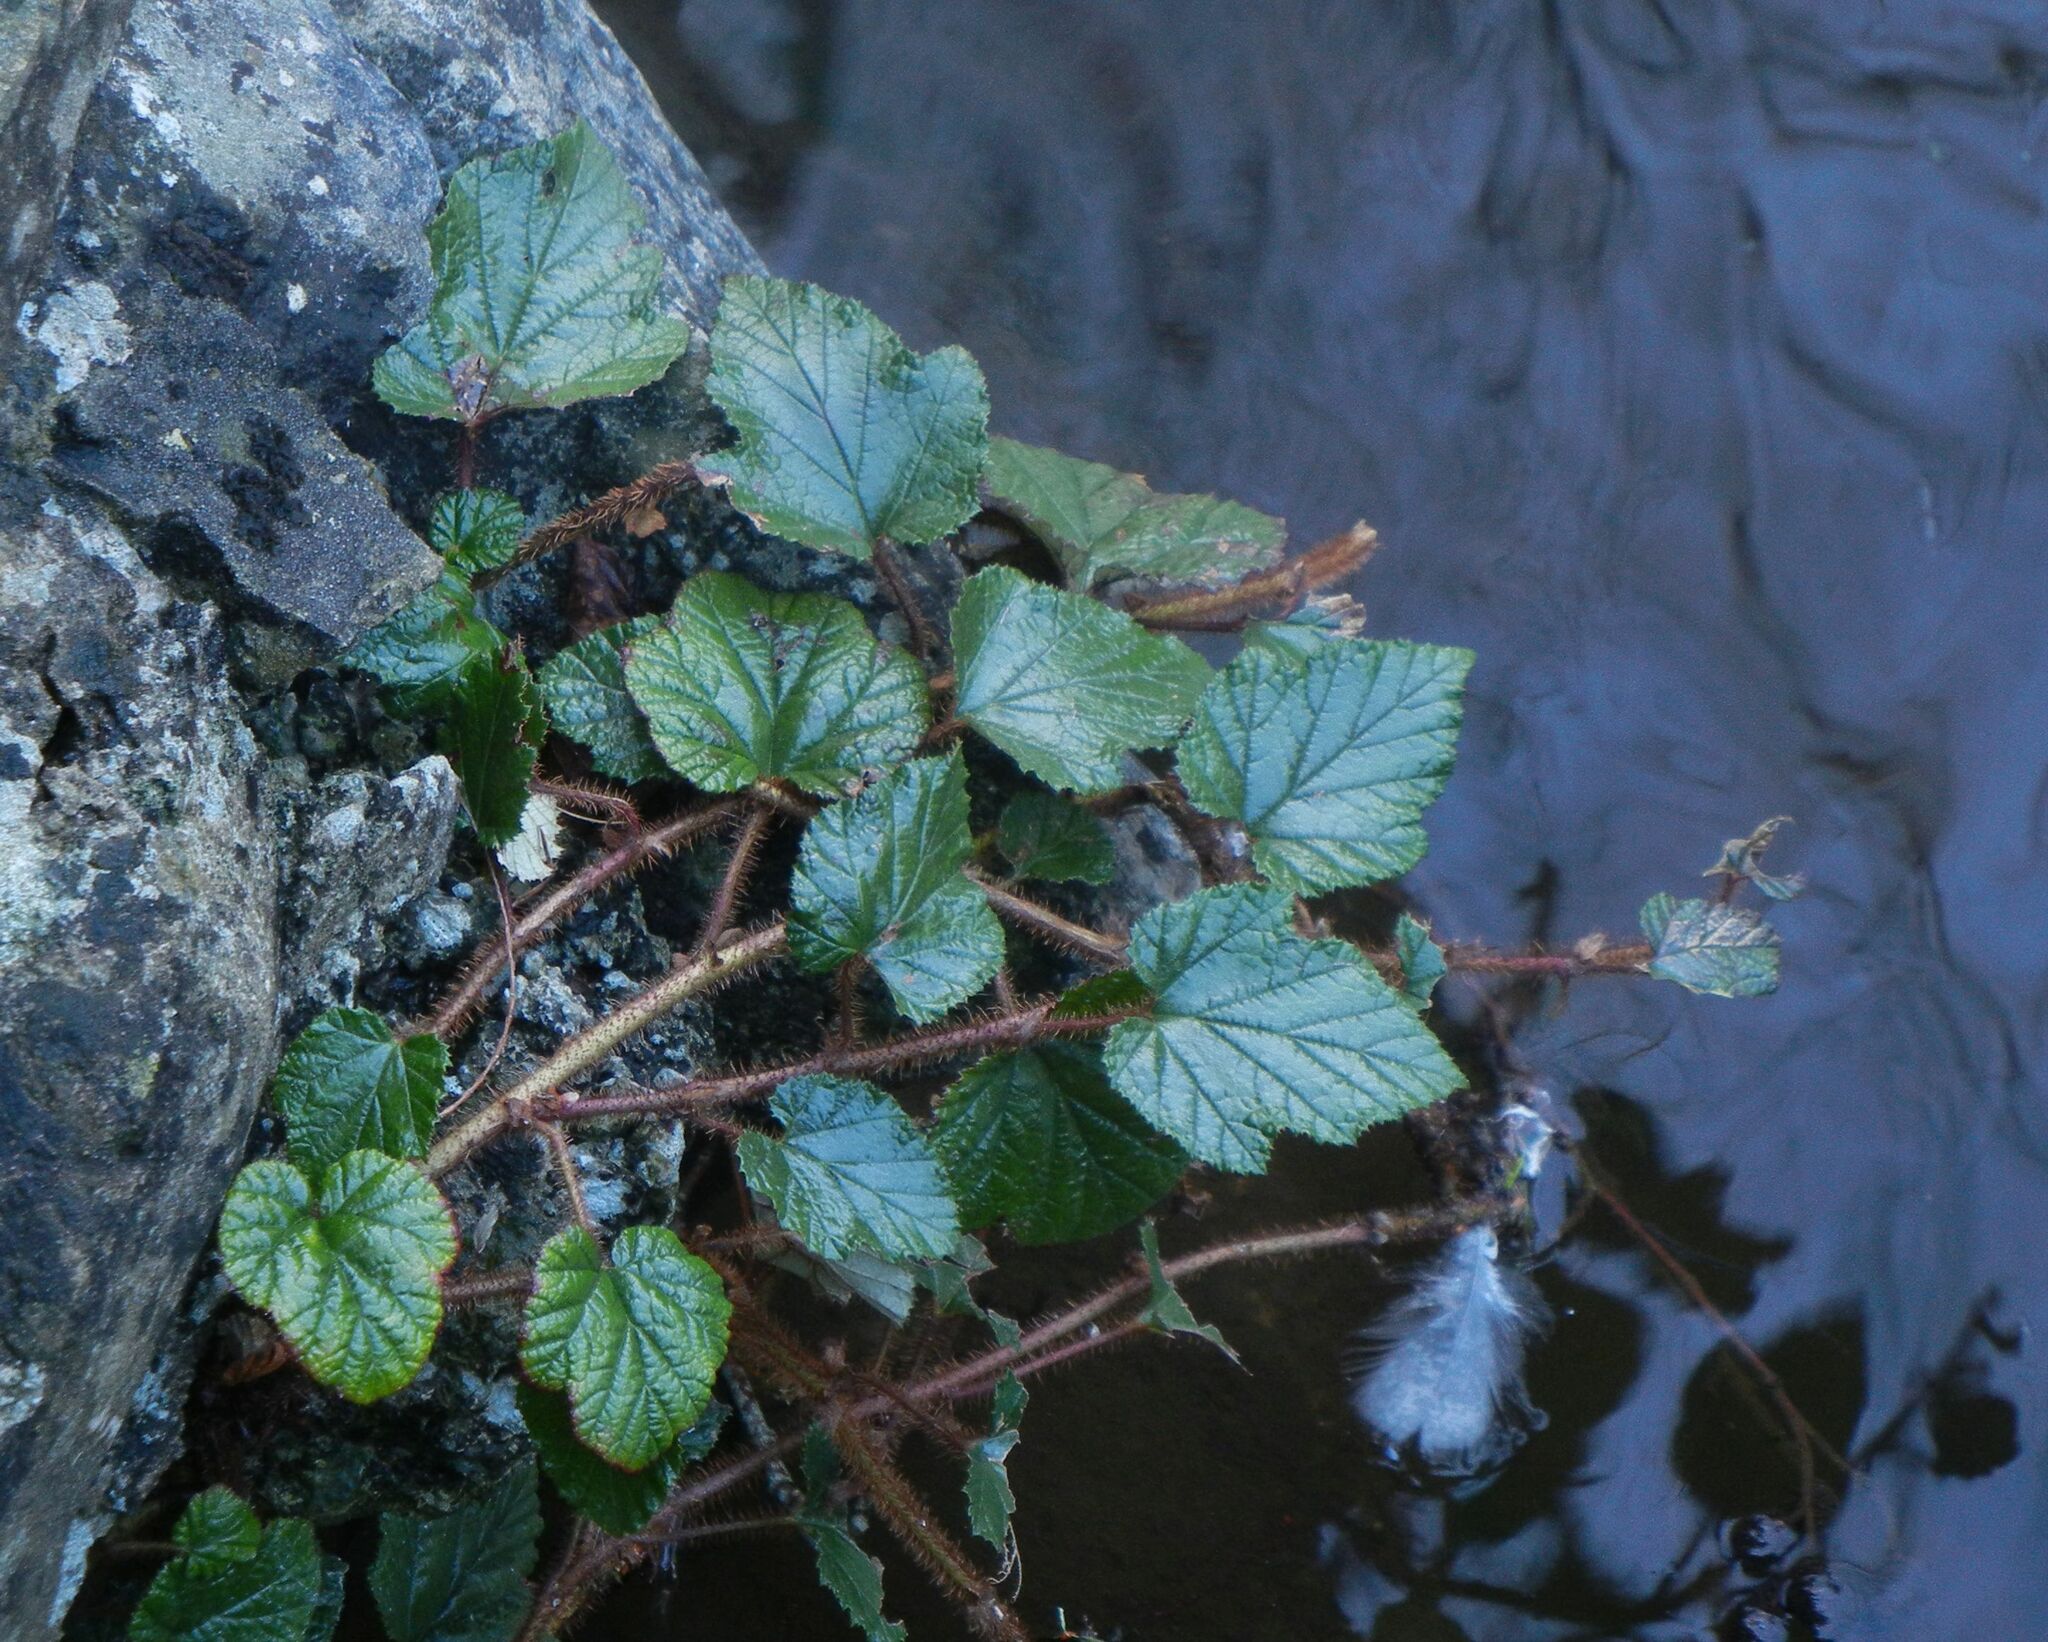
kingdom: Plantae
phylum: Tracheophyta
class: Magnoliopsida
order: Rosales
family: Rosaceae
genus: Rubus
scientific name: Rubus tricolor
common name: Chinese bramble
